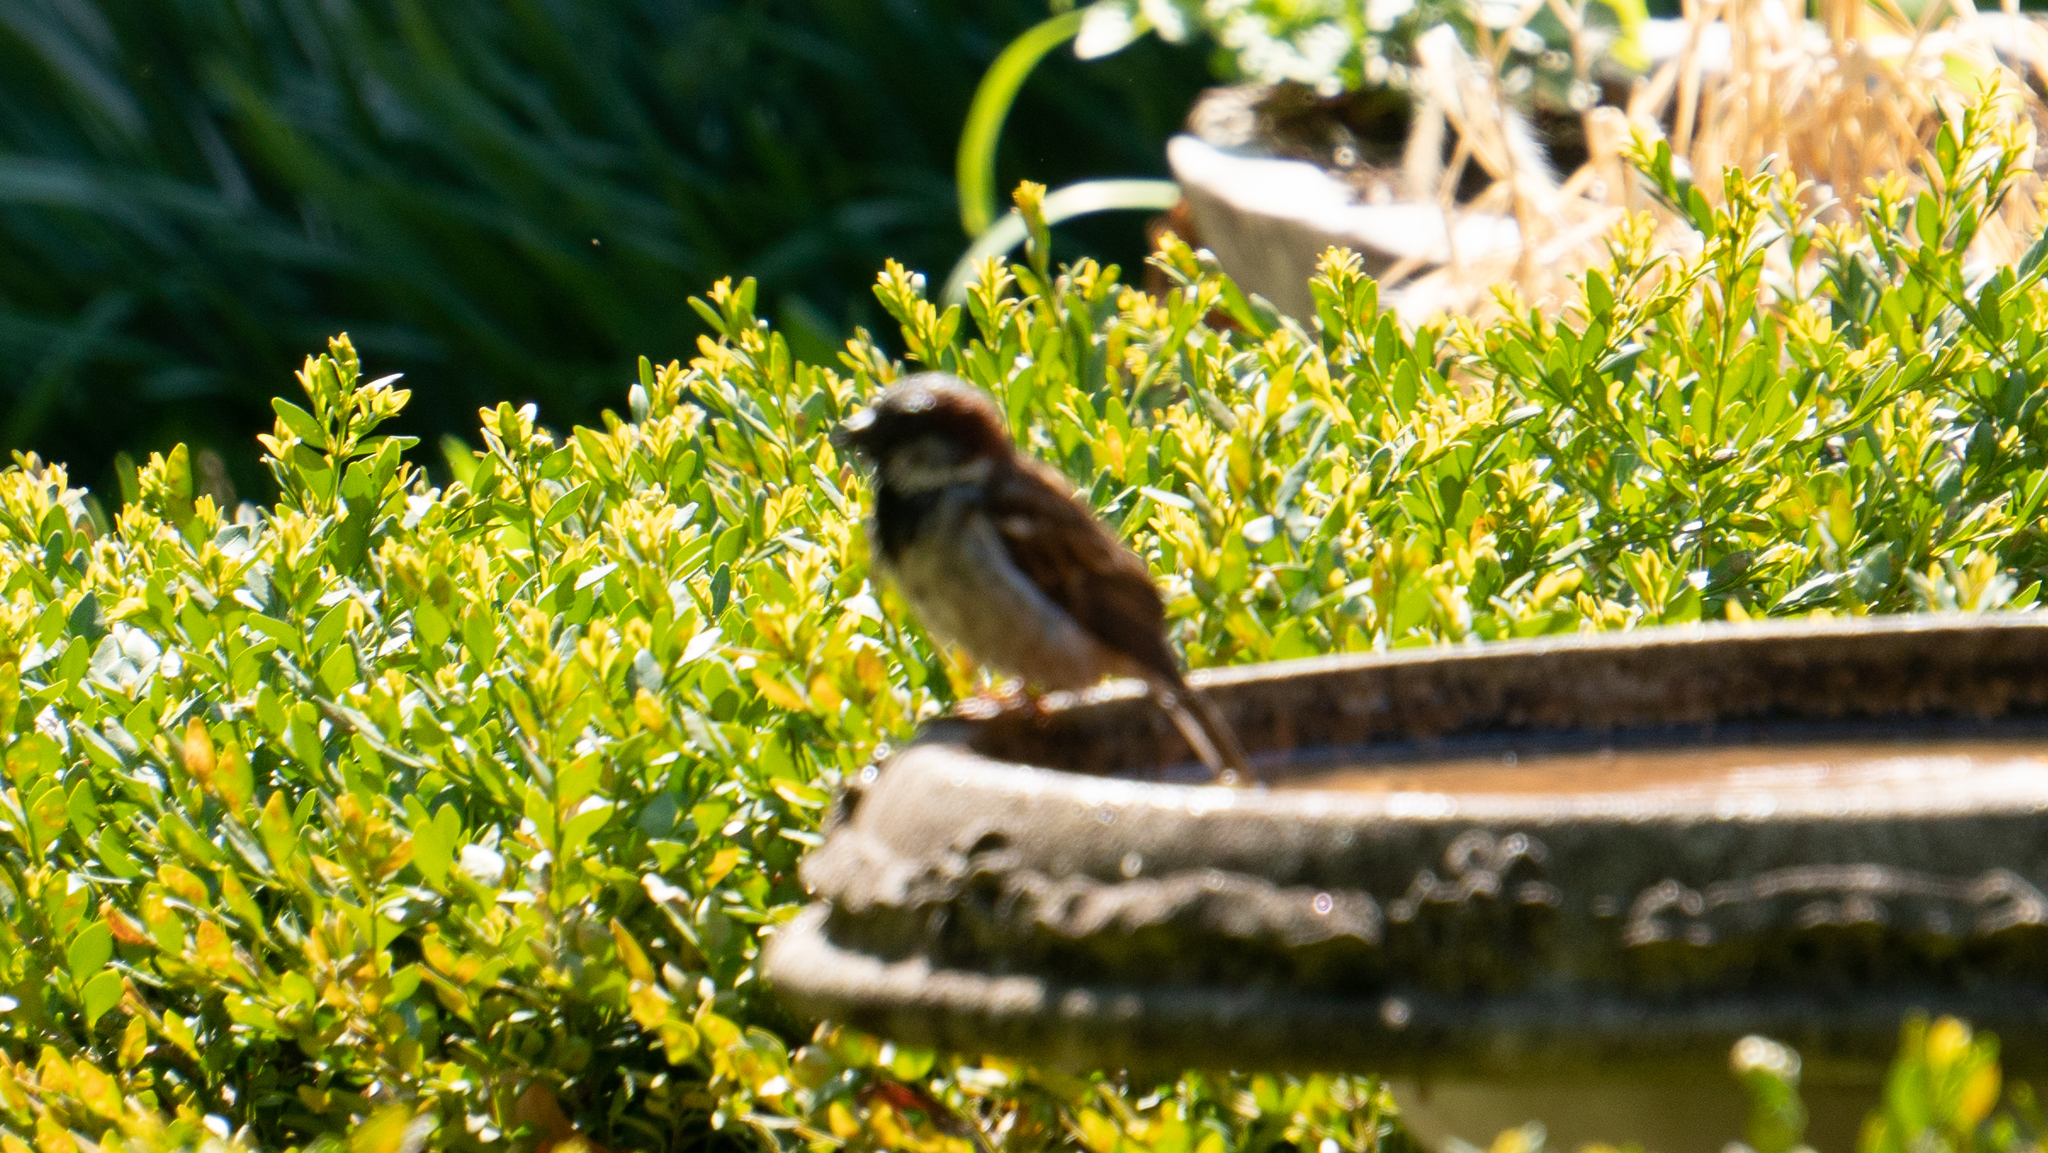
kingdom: Animalia
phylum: Chordata
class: Aves
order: Passeriformes
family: Passeridae
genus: Passer
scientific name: Passer domesticus
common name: House sparrow
